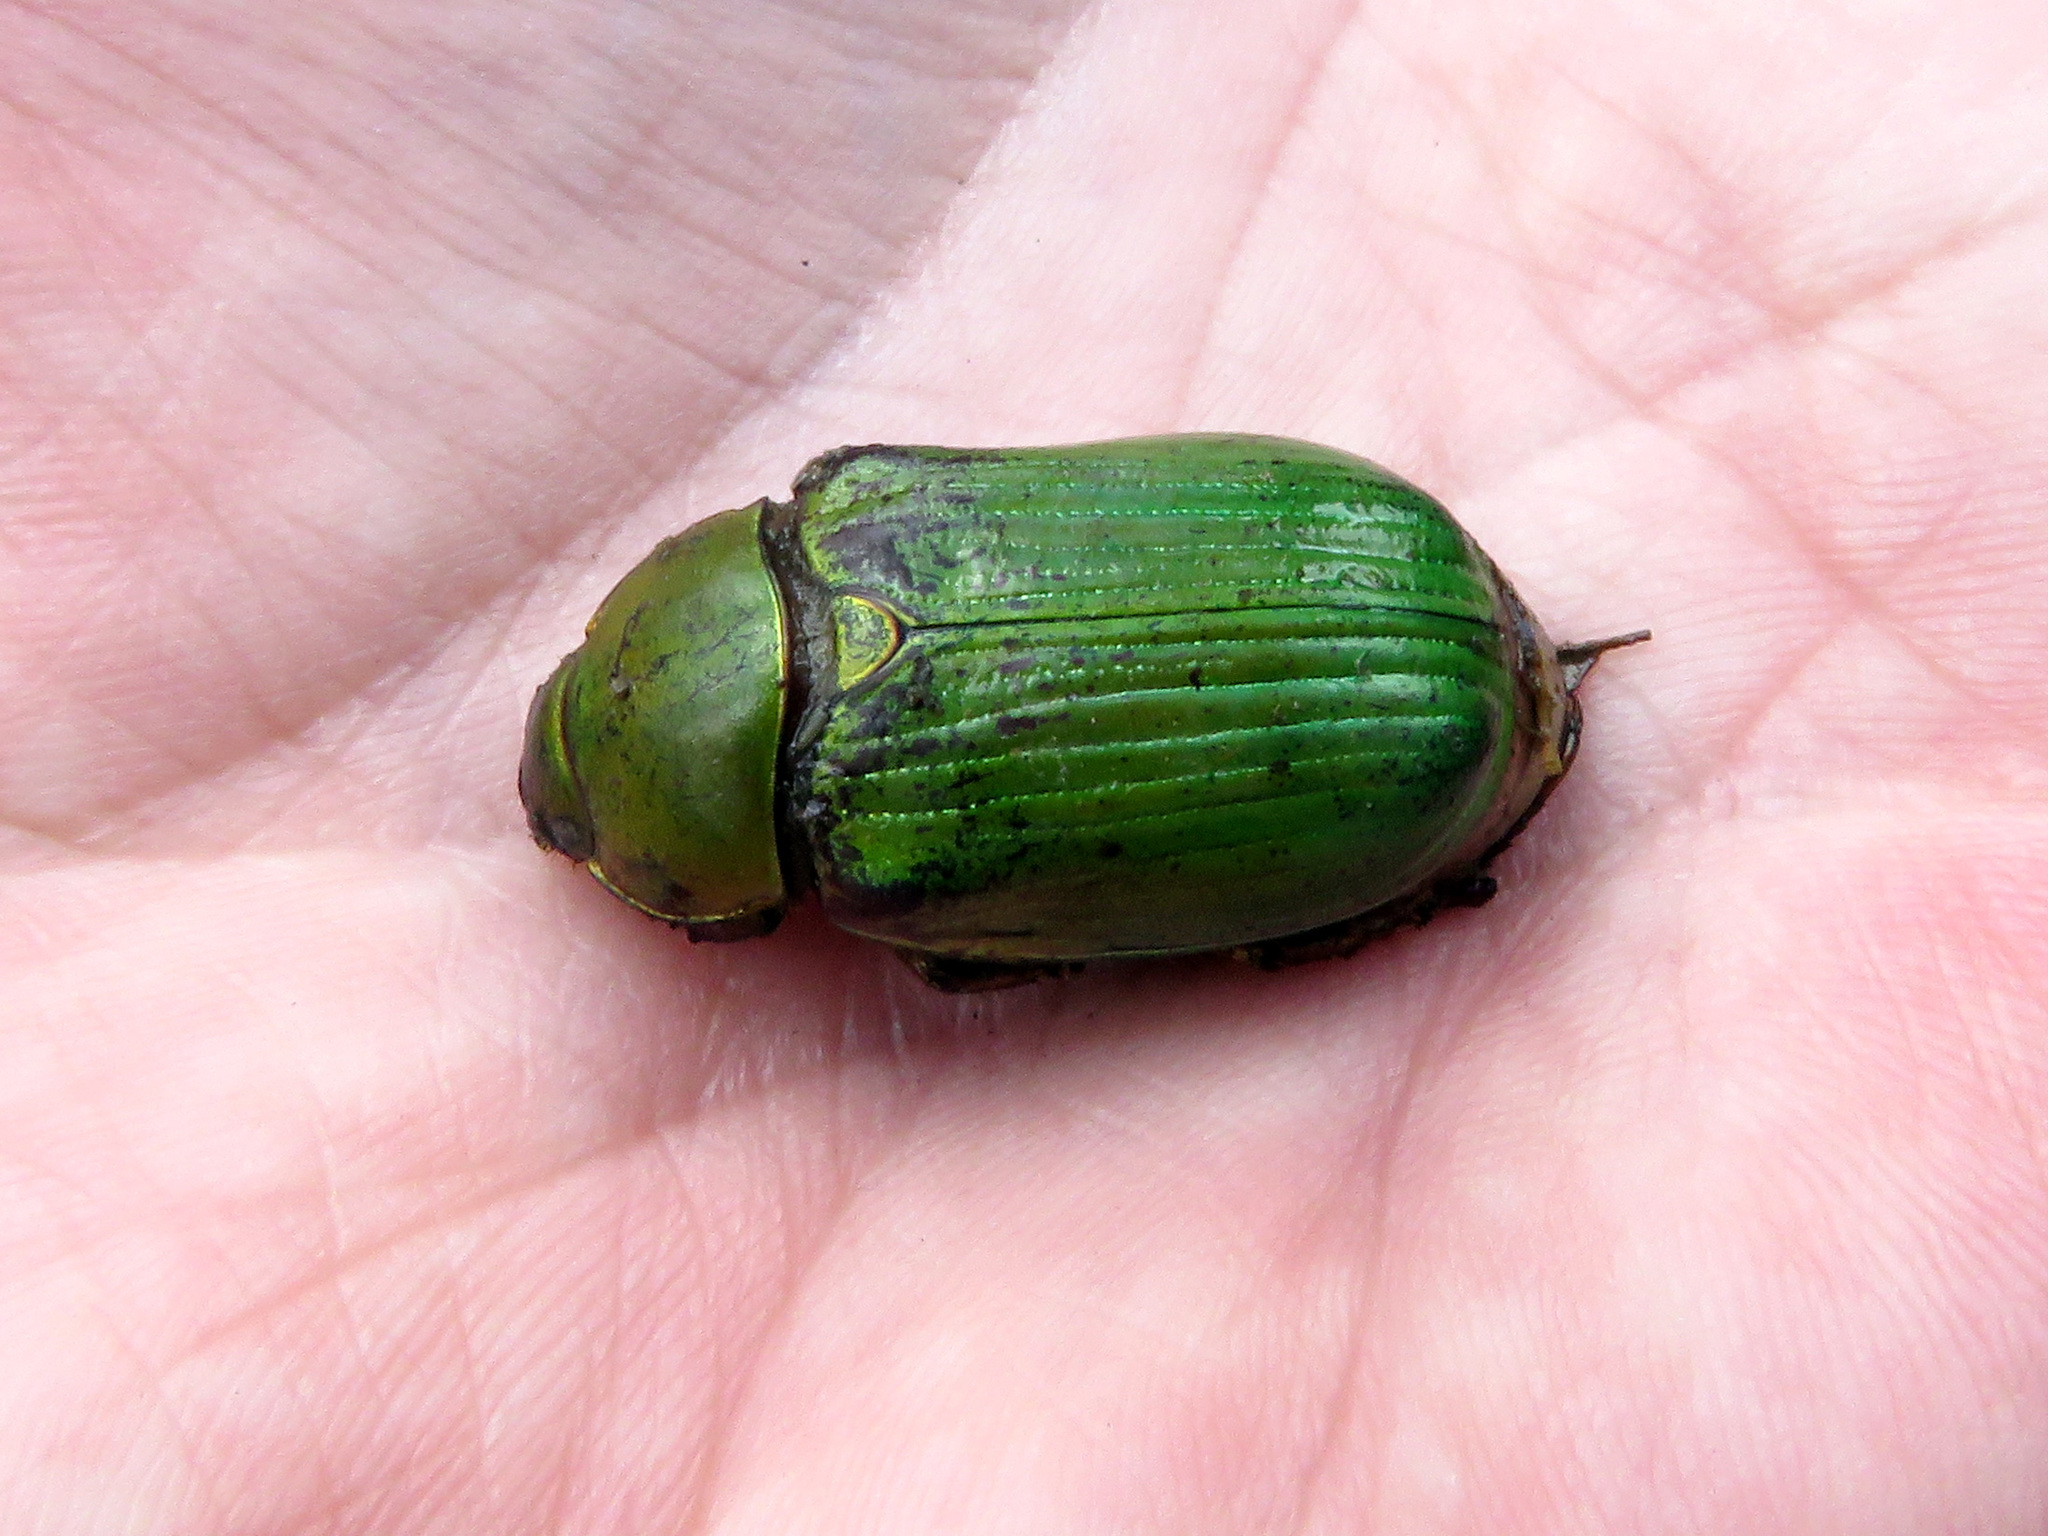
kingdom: Animalia
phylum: Arthropoda
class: Insecta
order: Coleoptera
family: Scarabaeidae
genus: Chrysina
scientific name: Chrysina lecontei
